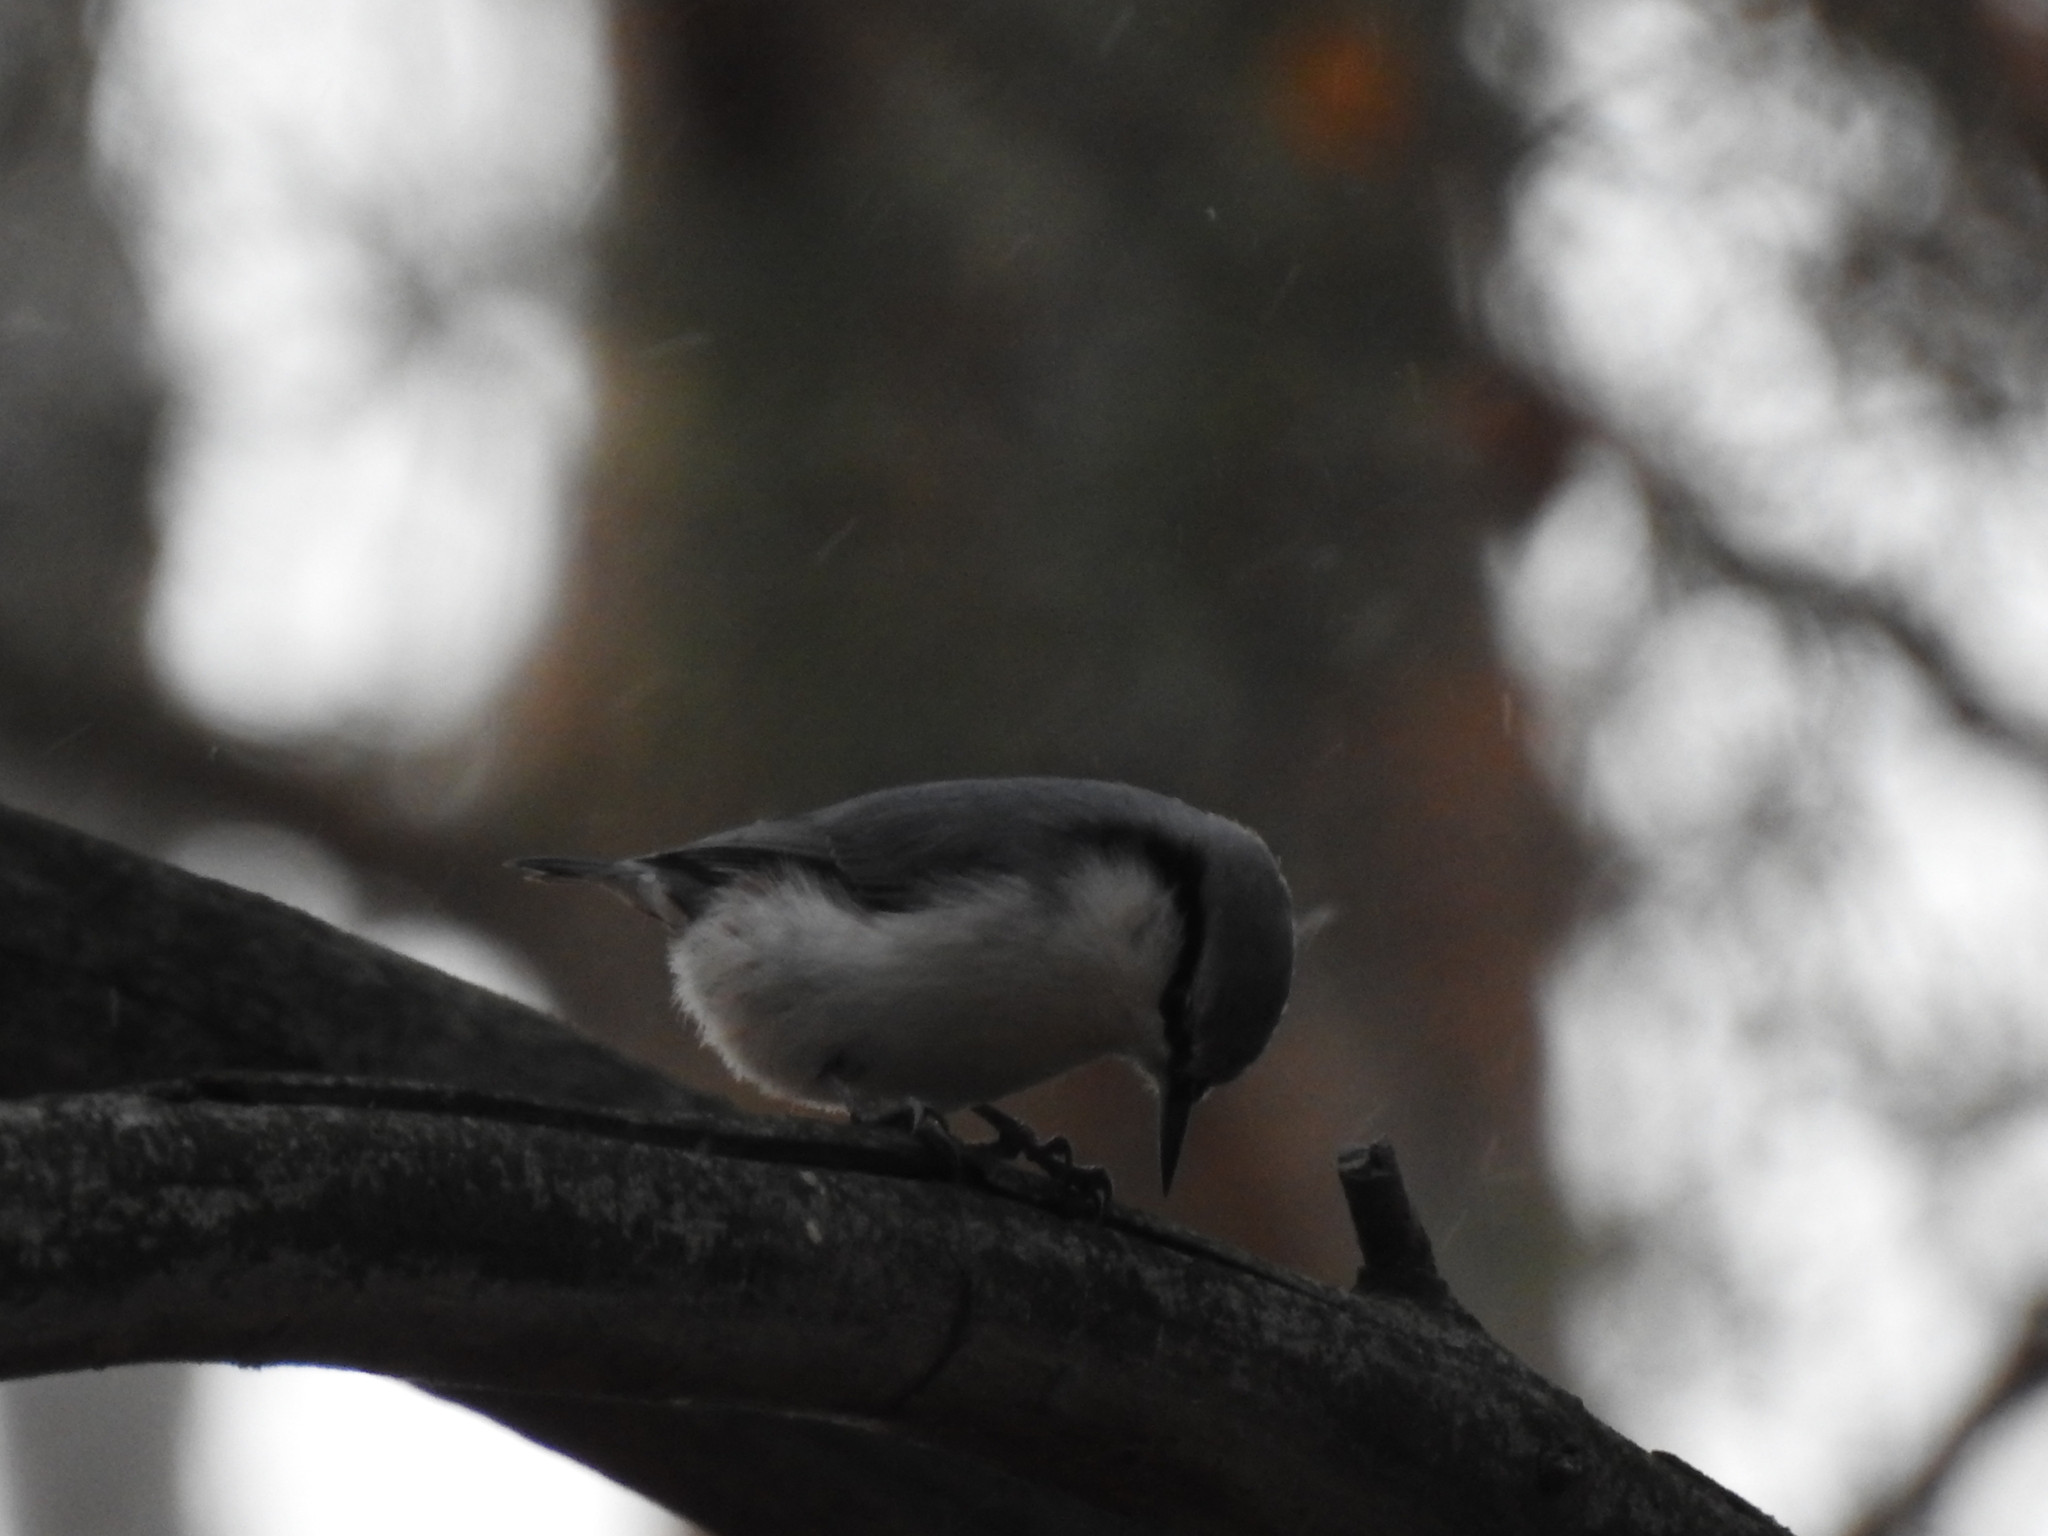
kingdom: Animalia
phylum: Chordata
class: Aves
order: Passeriformes
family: Sittidae
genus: Sitta
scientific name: Sitta europaea
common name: Eurasian nuthatch
